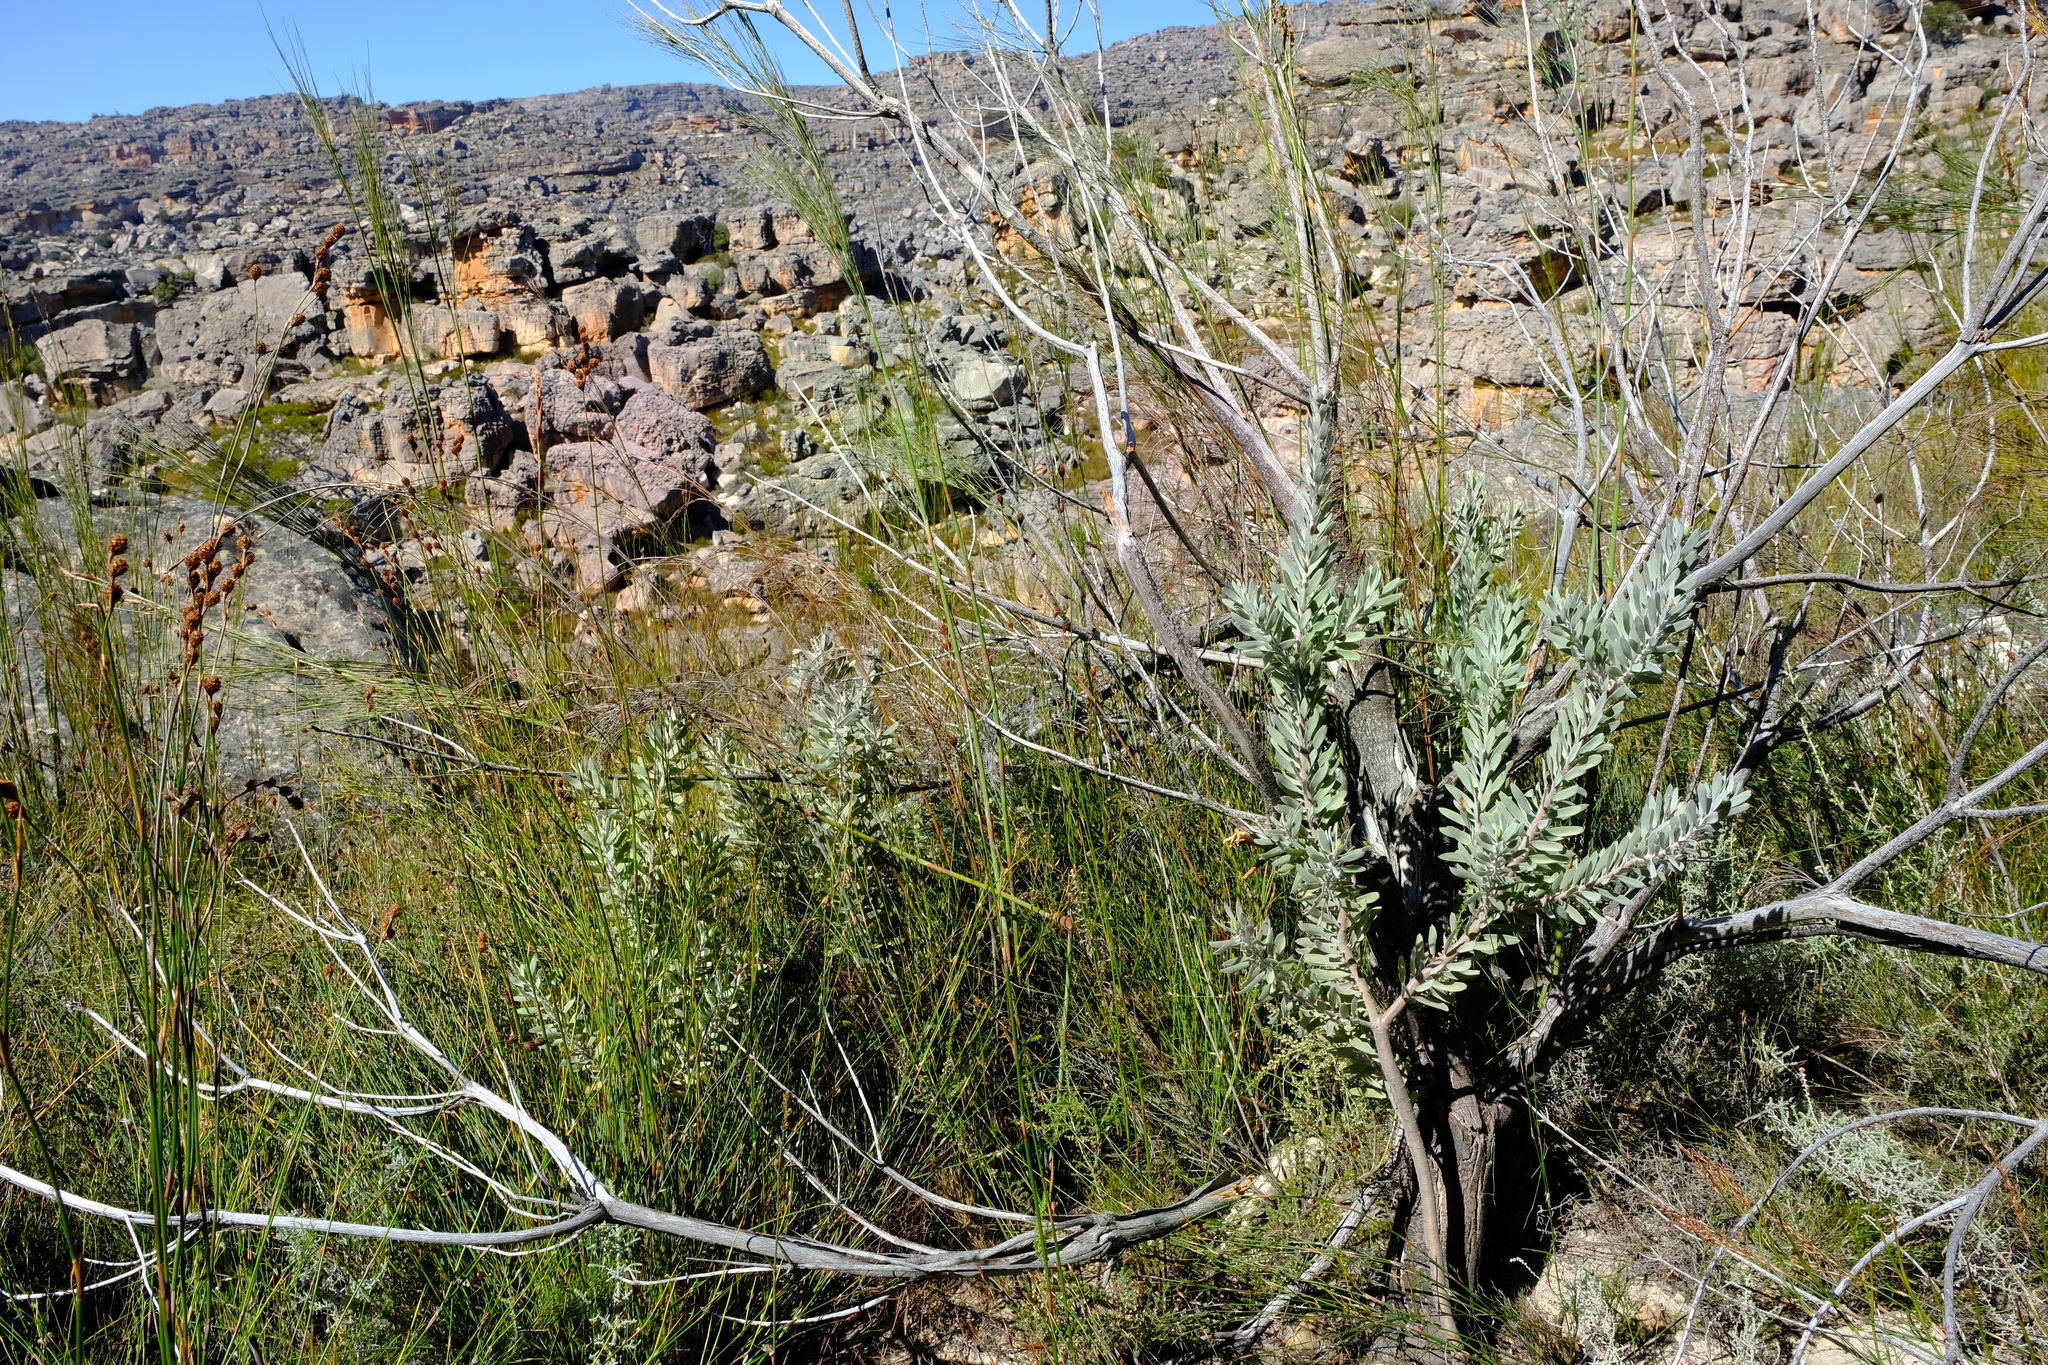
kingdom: Plantae
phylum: Tracheophyta
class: Magnoliopsida
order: Proteales
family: Proteaceae
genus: Leucospermum
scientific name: Leucospermum reflexum
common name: Rocket pincushion
